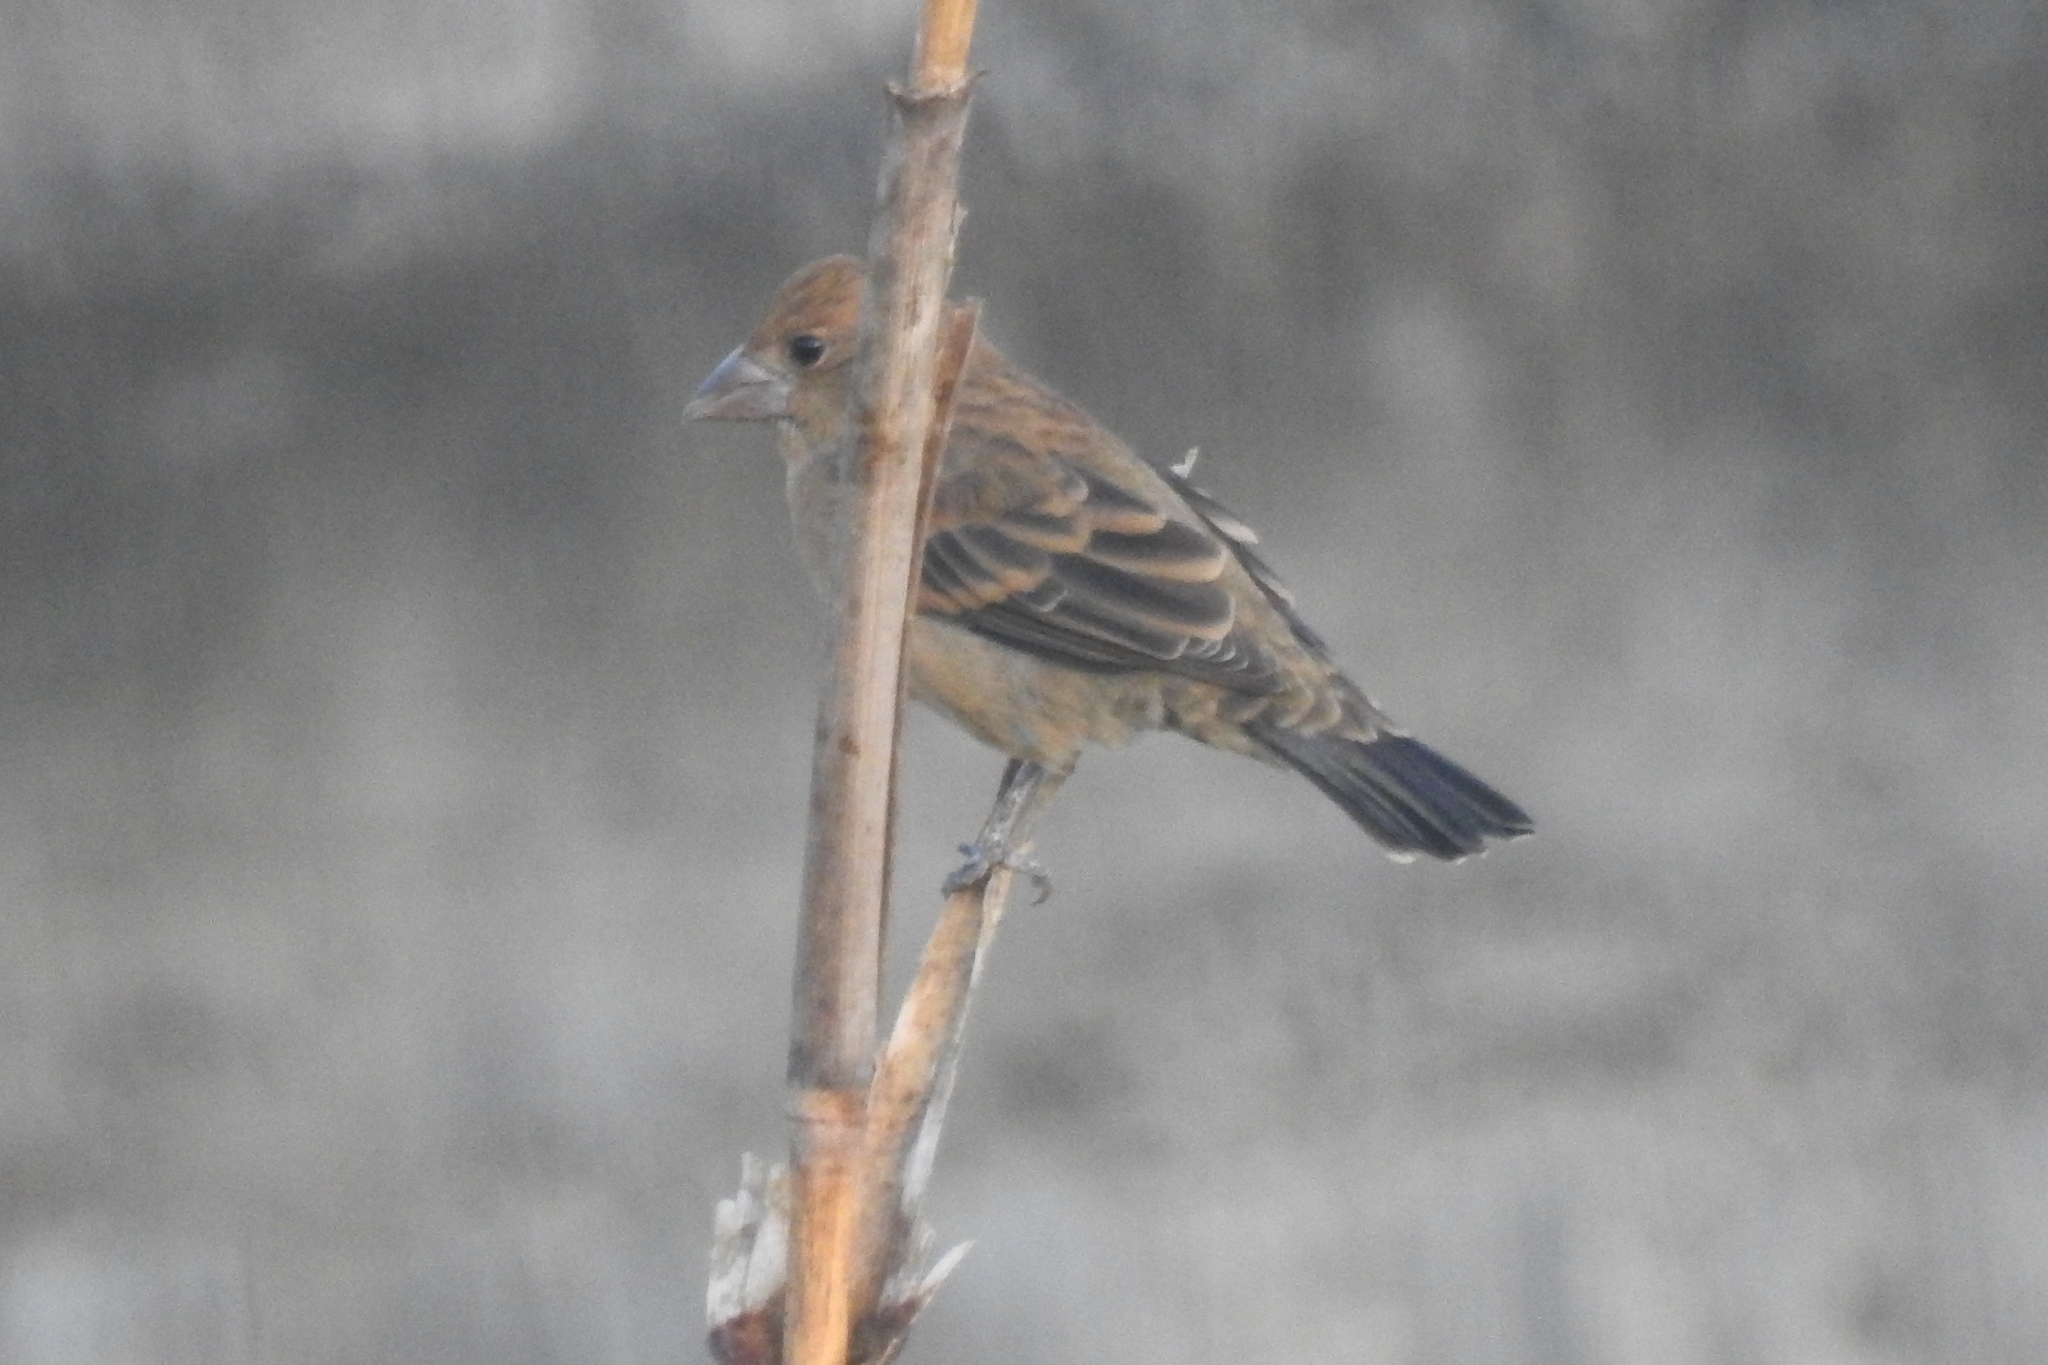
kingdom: Animalia
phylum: Chordata
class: Aves
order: Passeriformes
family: Cardinalidae
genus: Passerina
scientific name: Passerina caerulea
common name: Blue grosbeak
